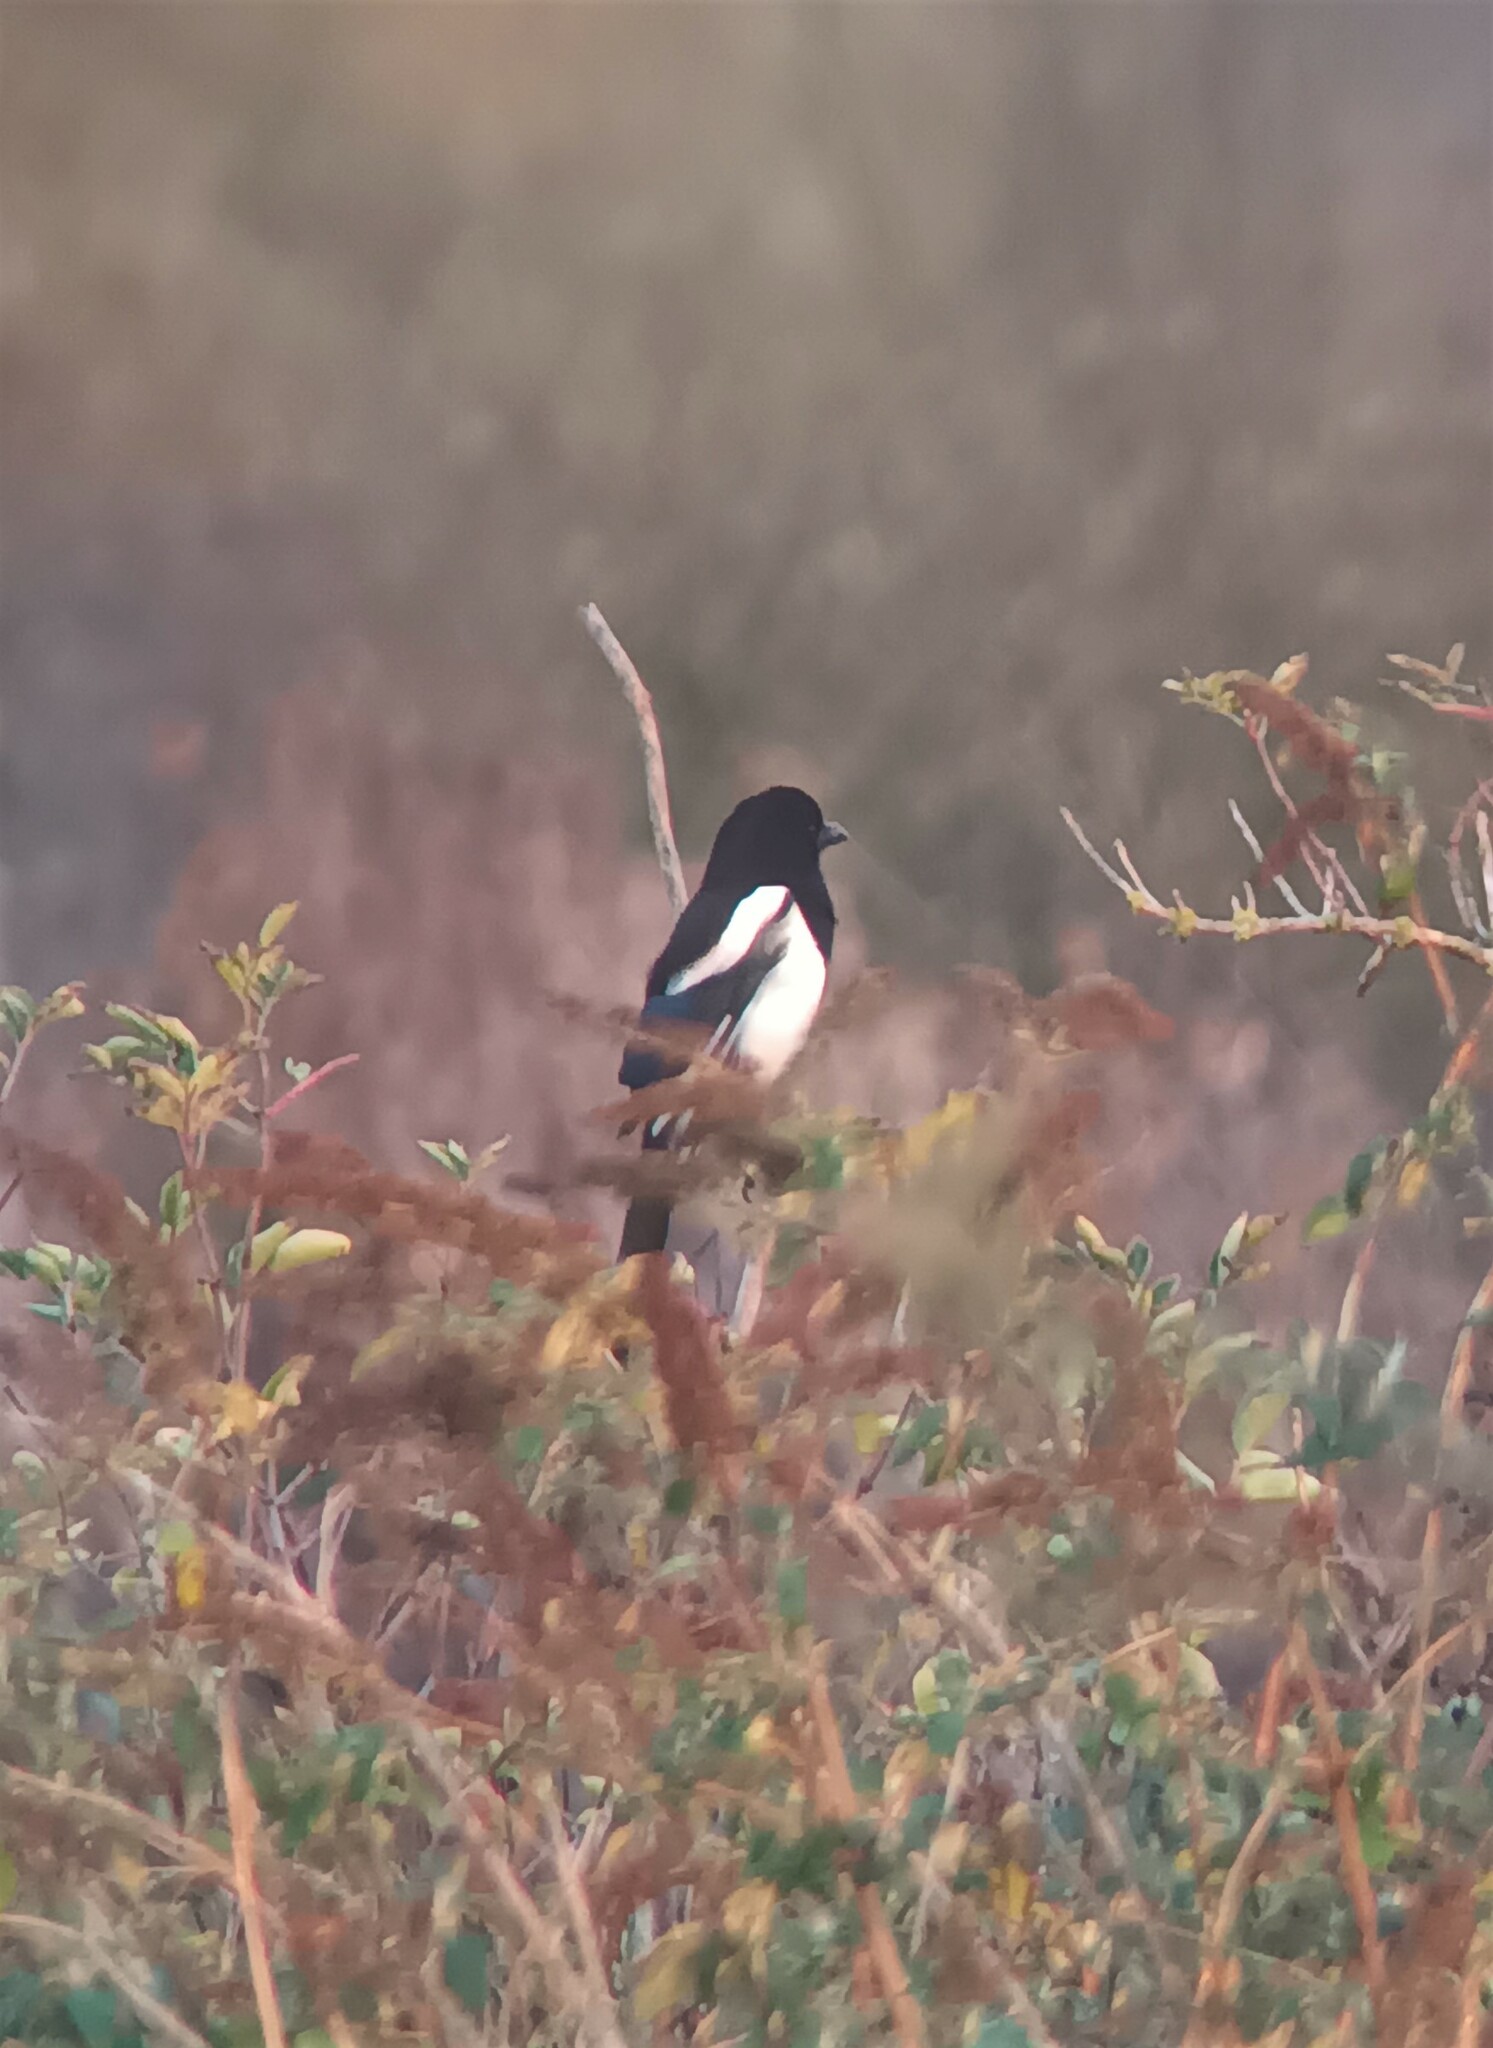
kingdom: Animalia
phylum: Chordata
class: Aves
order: Passeriformes
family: Corvidae
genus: Pica
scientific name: Pica pica
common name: Eurasian magpie
